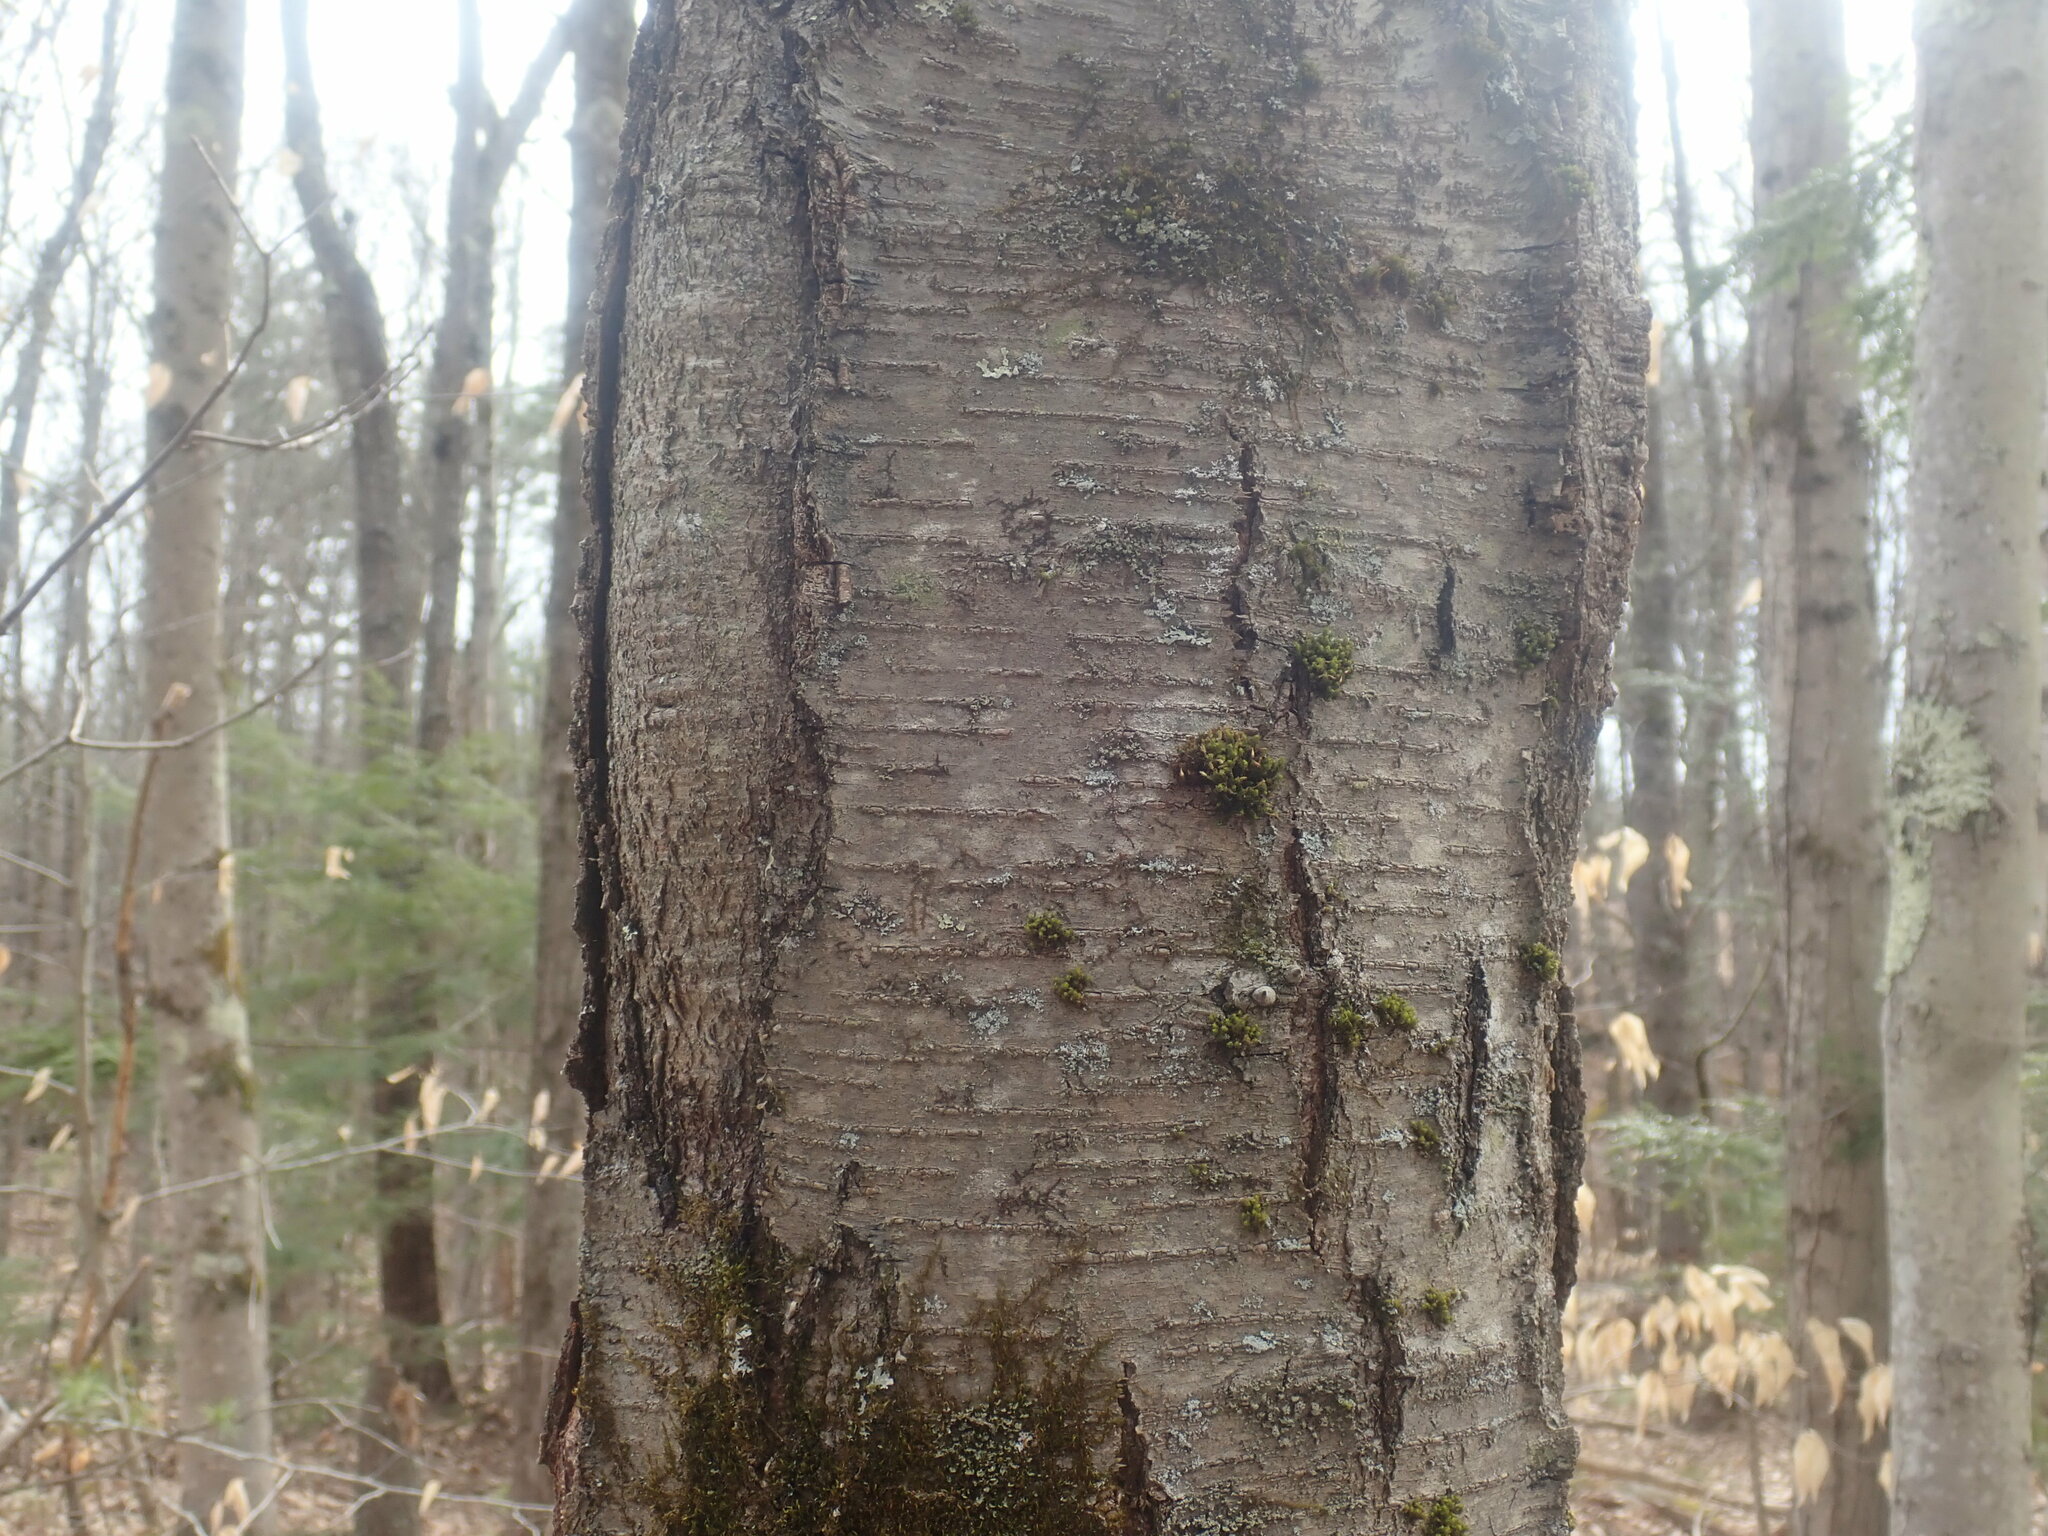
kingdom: Plantae
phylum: Tracheophyta
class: Magnoliopsida
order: Fagales
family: Betulaceae
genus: Betula
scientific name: Betula lenta
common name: Black birch
